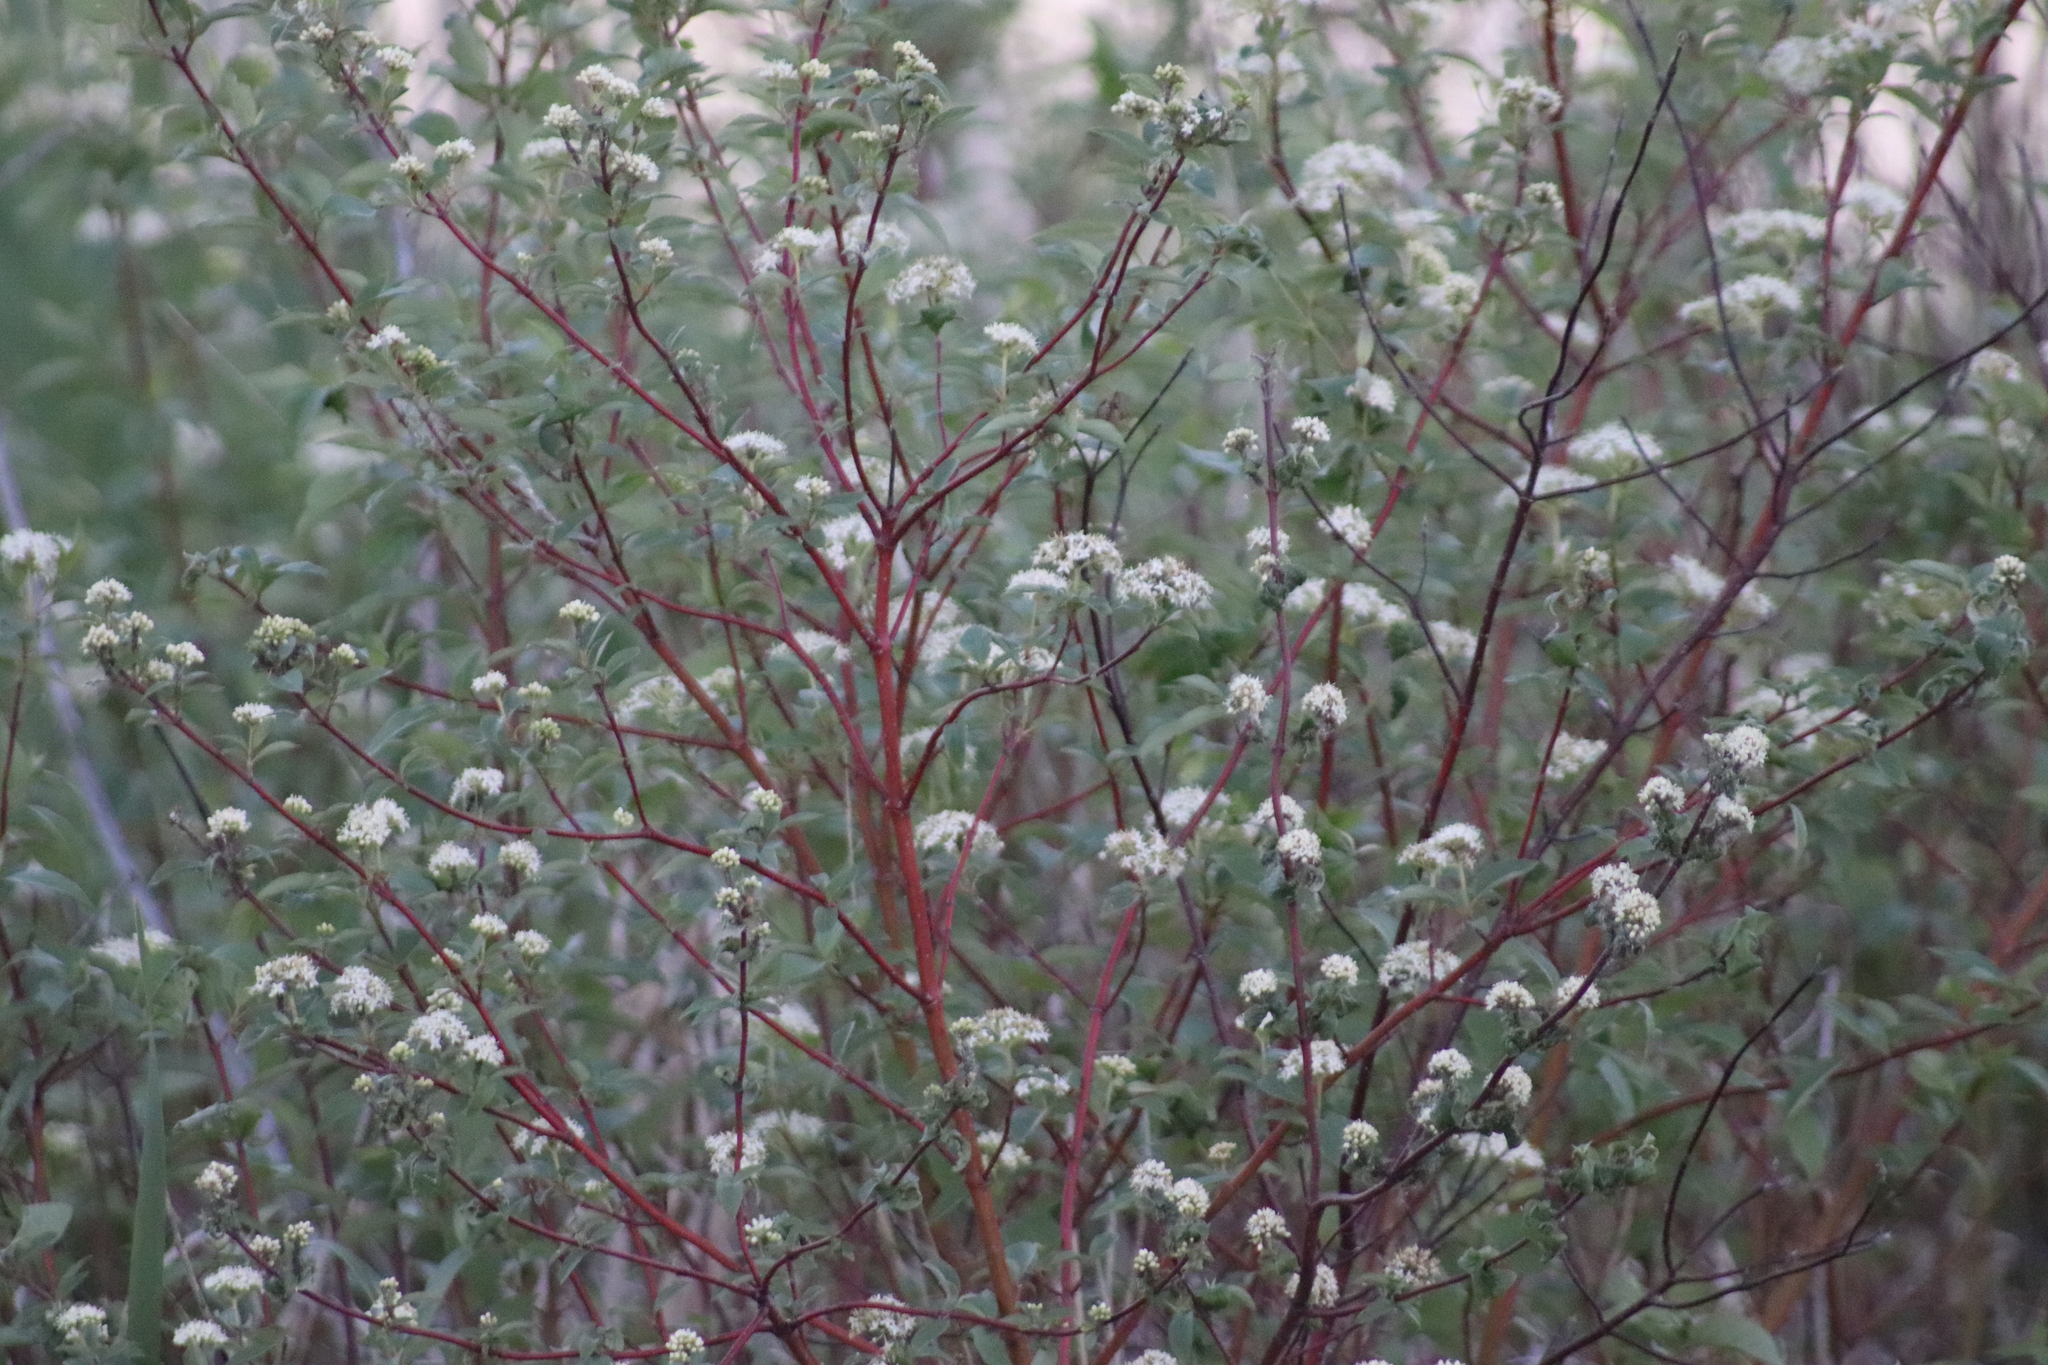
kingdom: Plantae
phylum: Tracheophyta
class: Magnoliopsida
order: Cornales
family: Cornaceae
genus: Cornus
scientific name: Cornus sericea
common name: Red-osier dogwood
